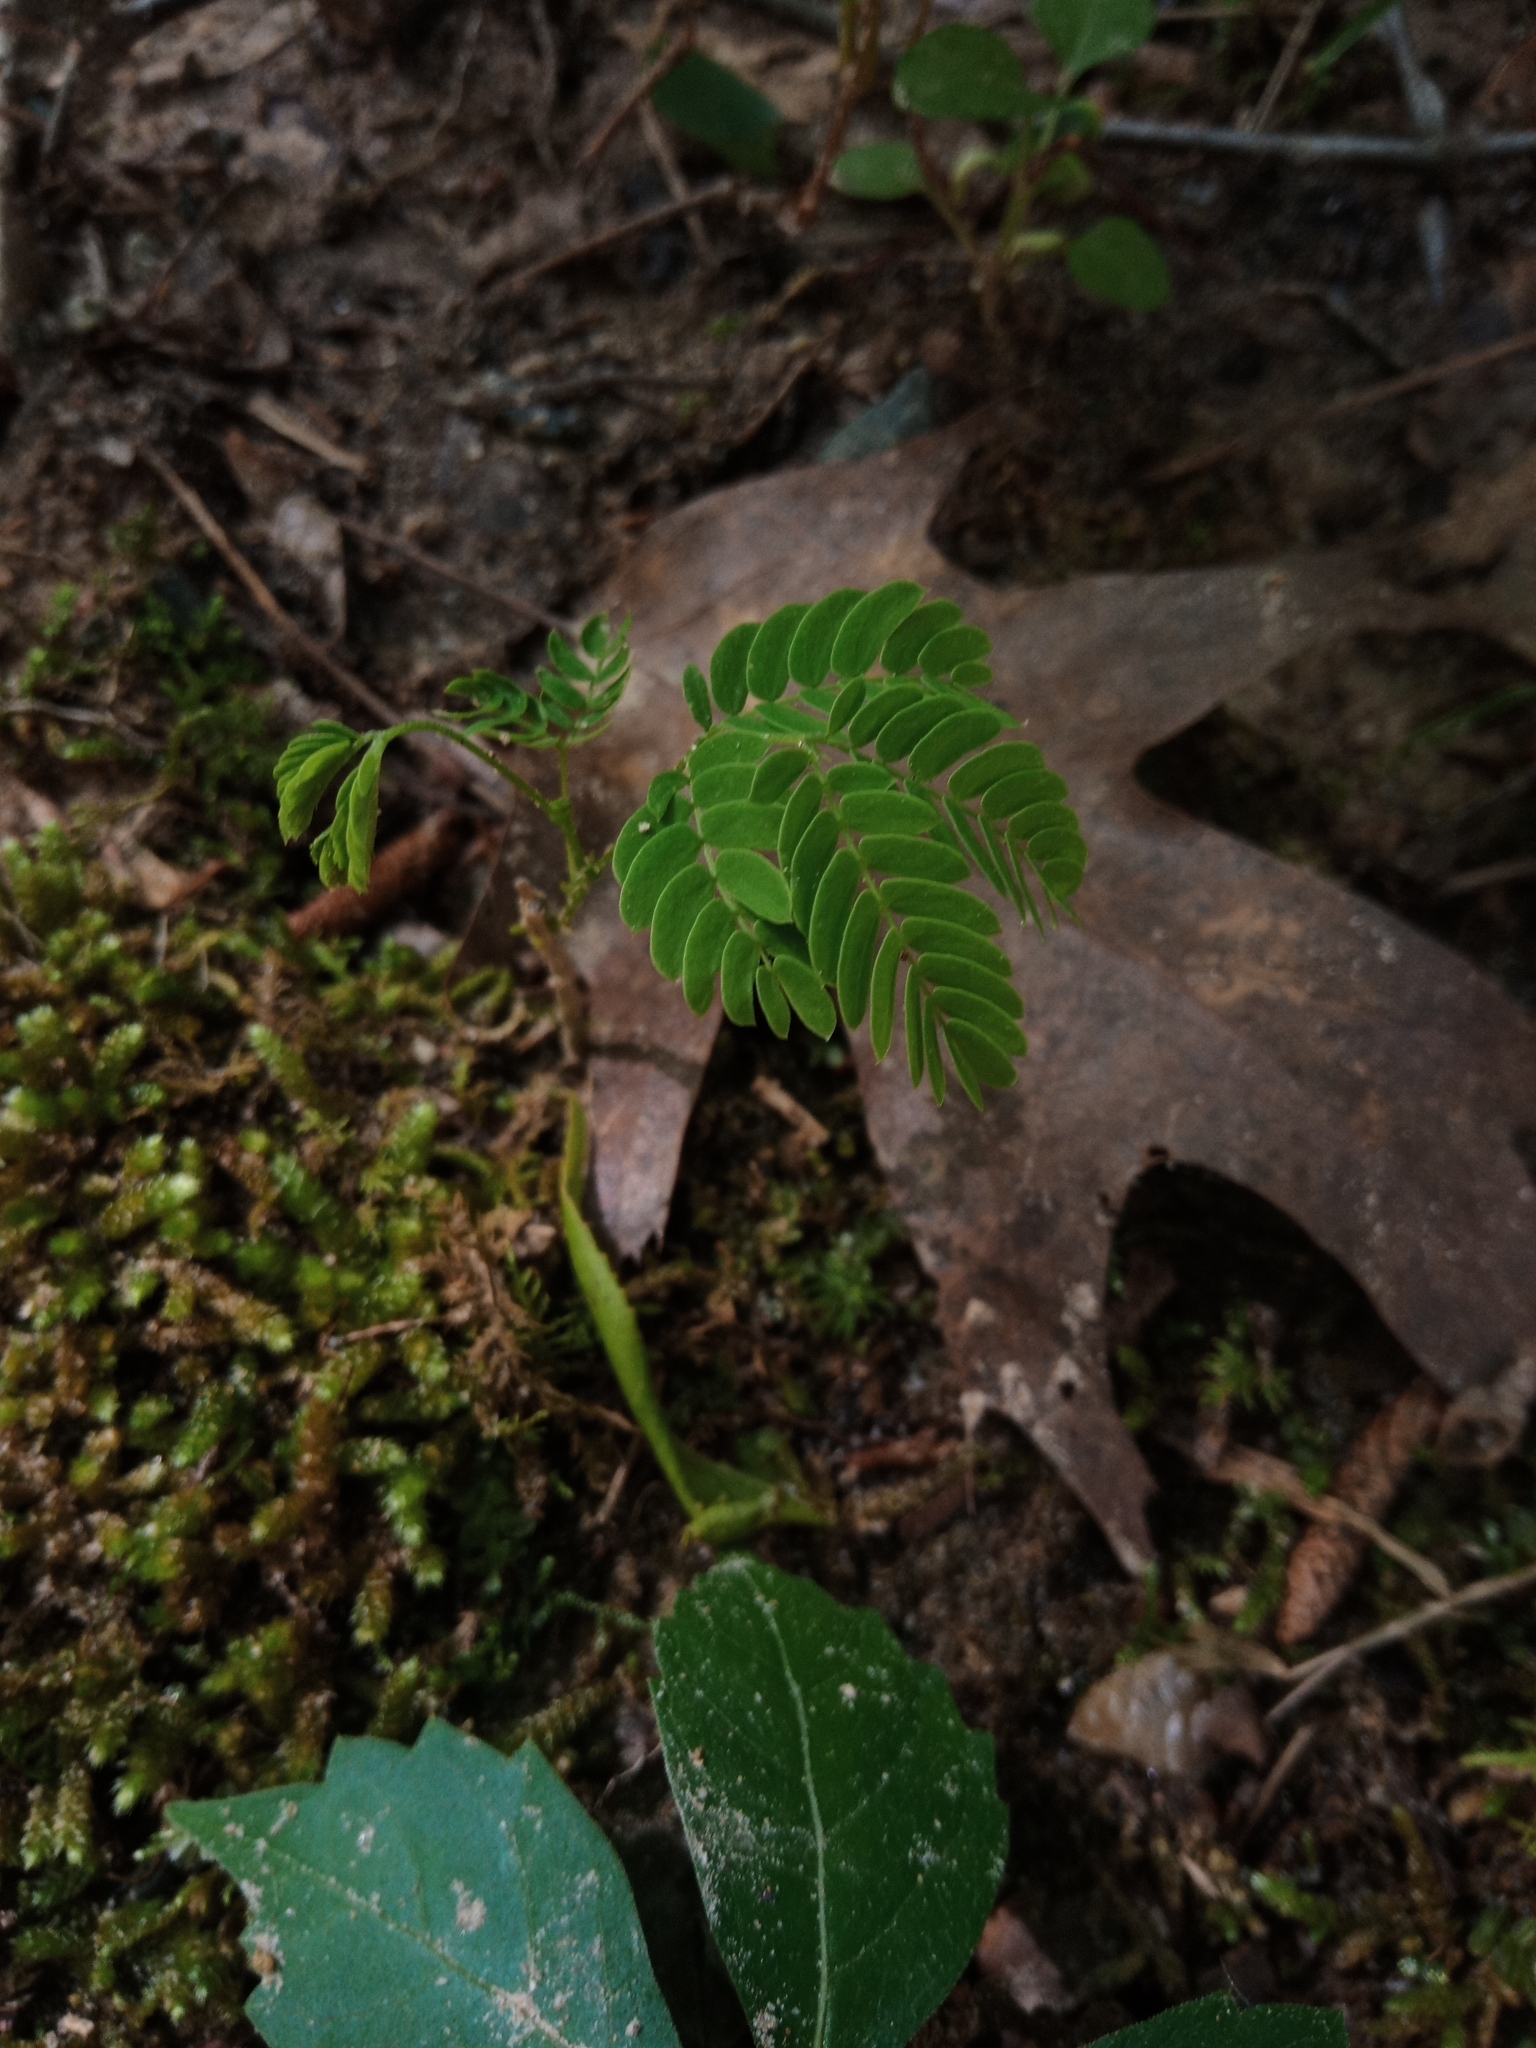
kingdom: Plantae
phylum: Tracheophyta
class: Magnoliopsida
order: Fabales
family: Fabaceae
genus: Albizia
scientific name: Albizia julibrissin
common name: Silktree
